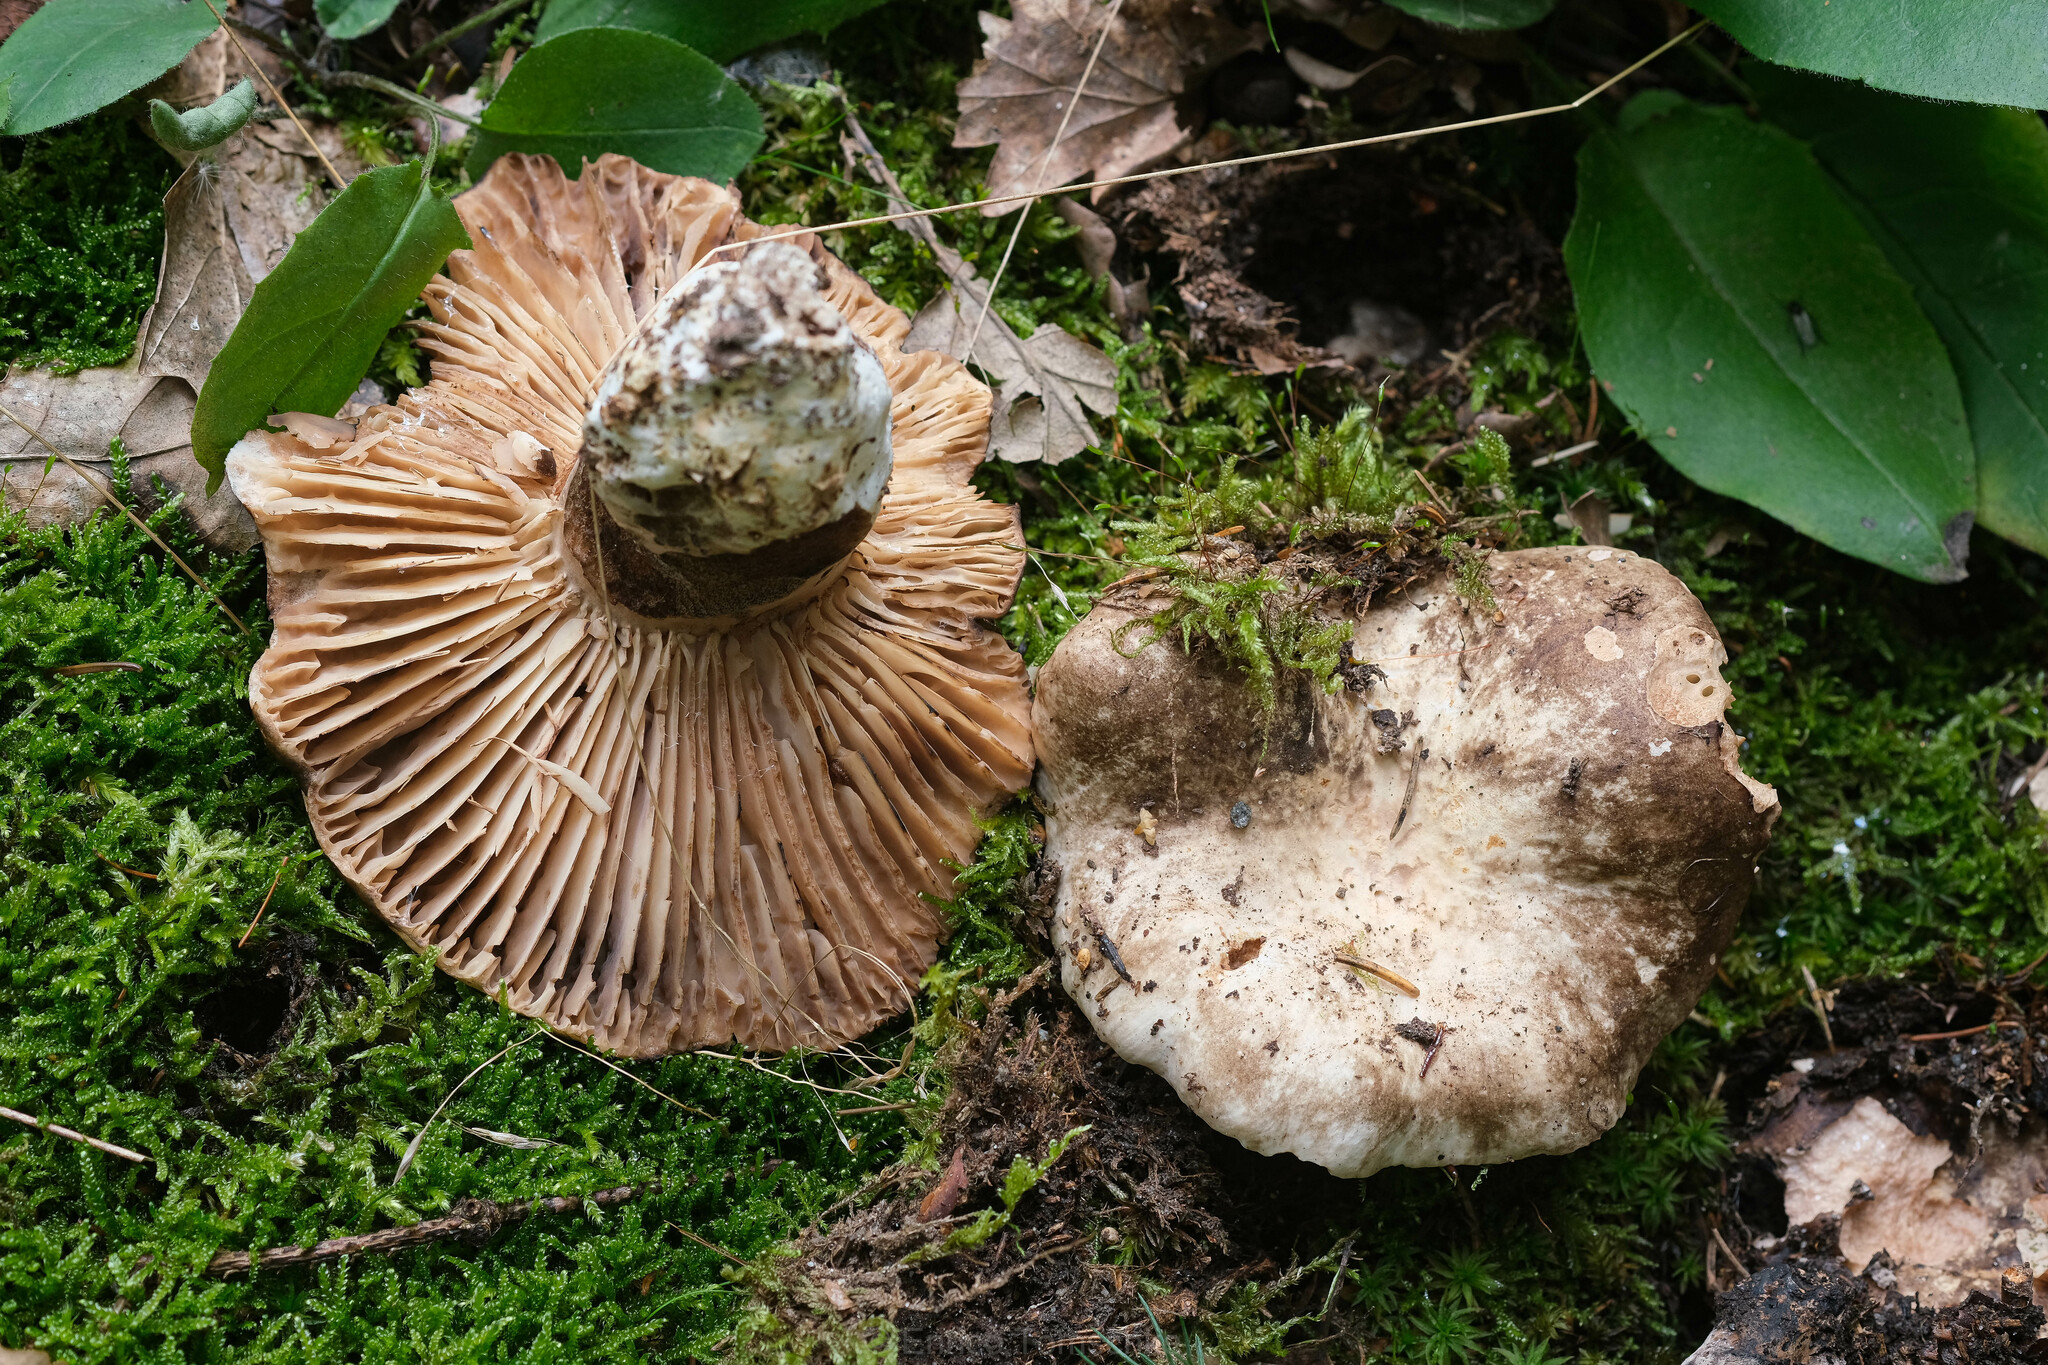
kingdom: Fungi
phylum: Basidiomycota
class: Agaricomycetes
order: Russulales
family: Russulaceae
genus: Russula
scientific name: Russula adusta
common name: Winecork brittlegill
